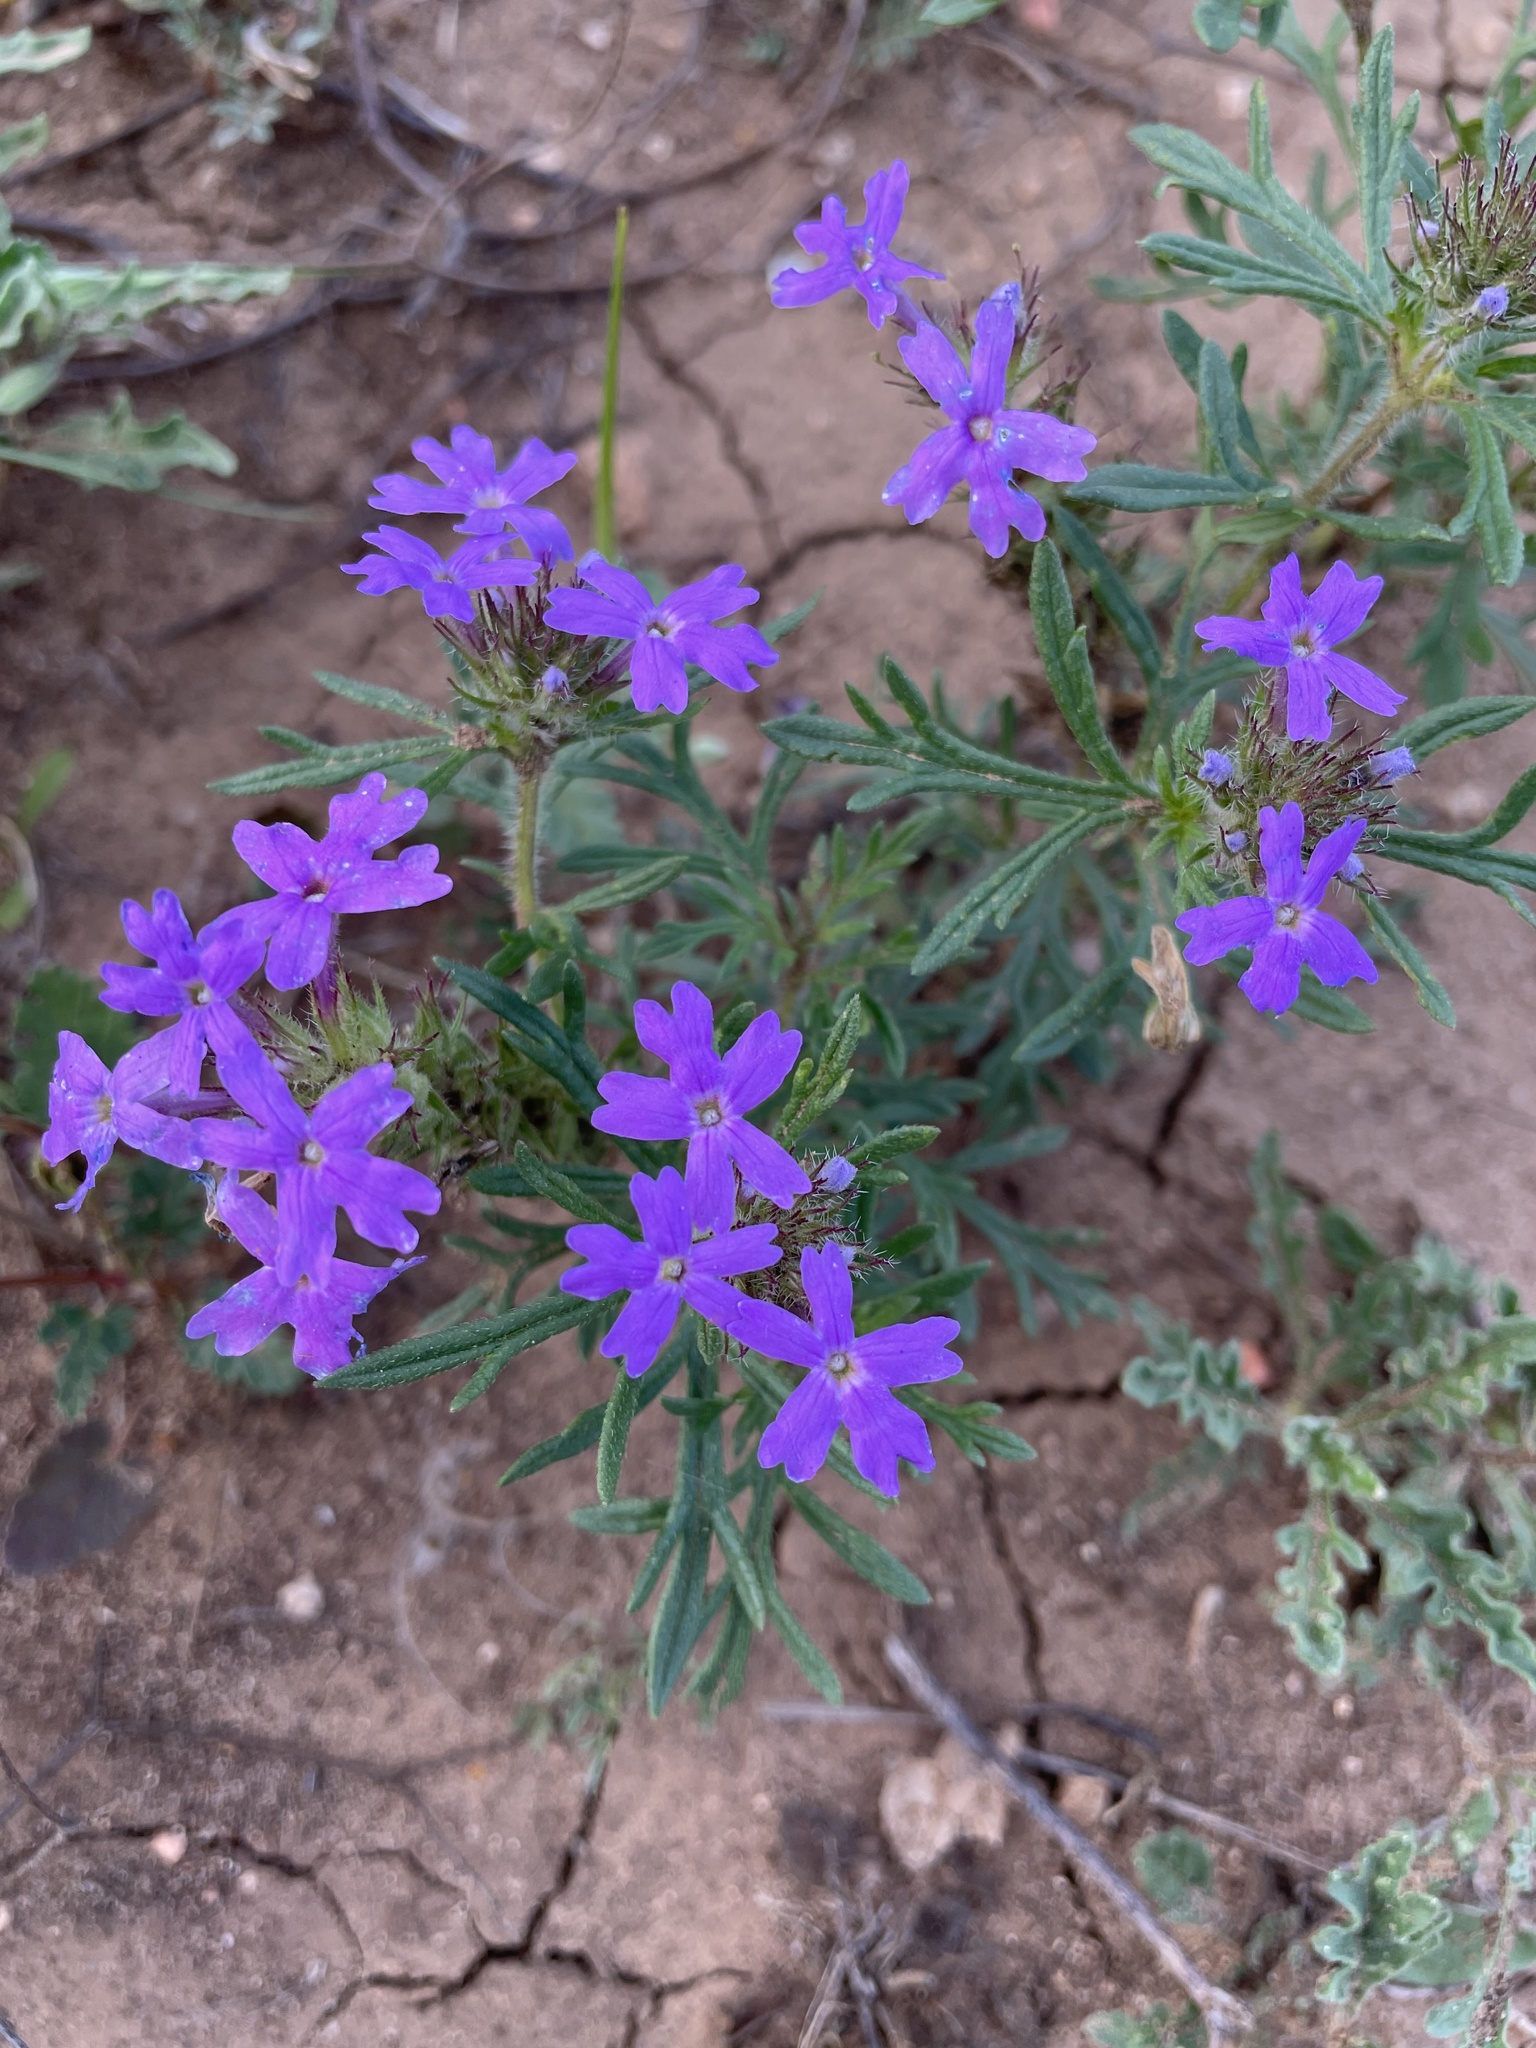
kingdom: Plantae
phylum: Tracheophyta
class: Magnoliopsida
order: Lamiales
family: Verbenaceae
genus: Verbena
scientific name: Verbena bipinnatifida
